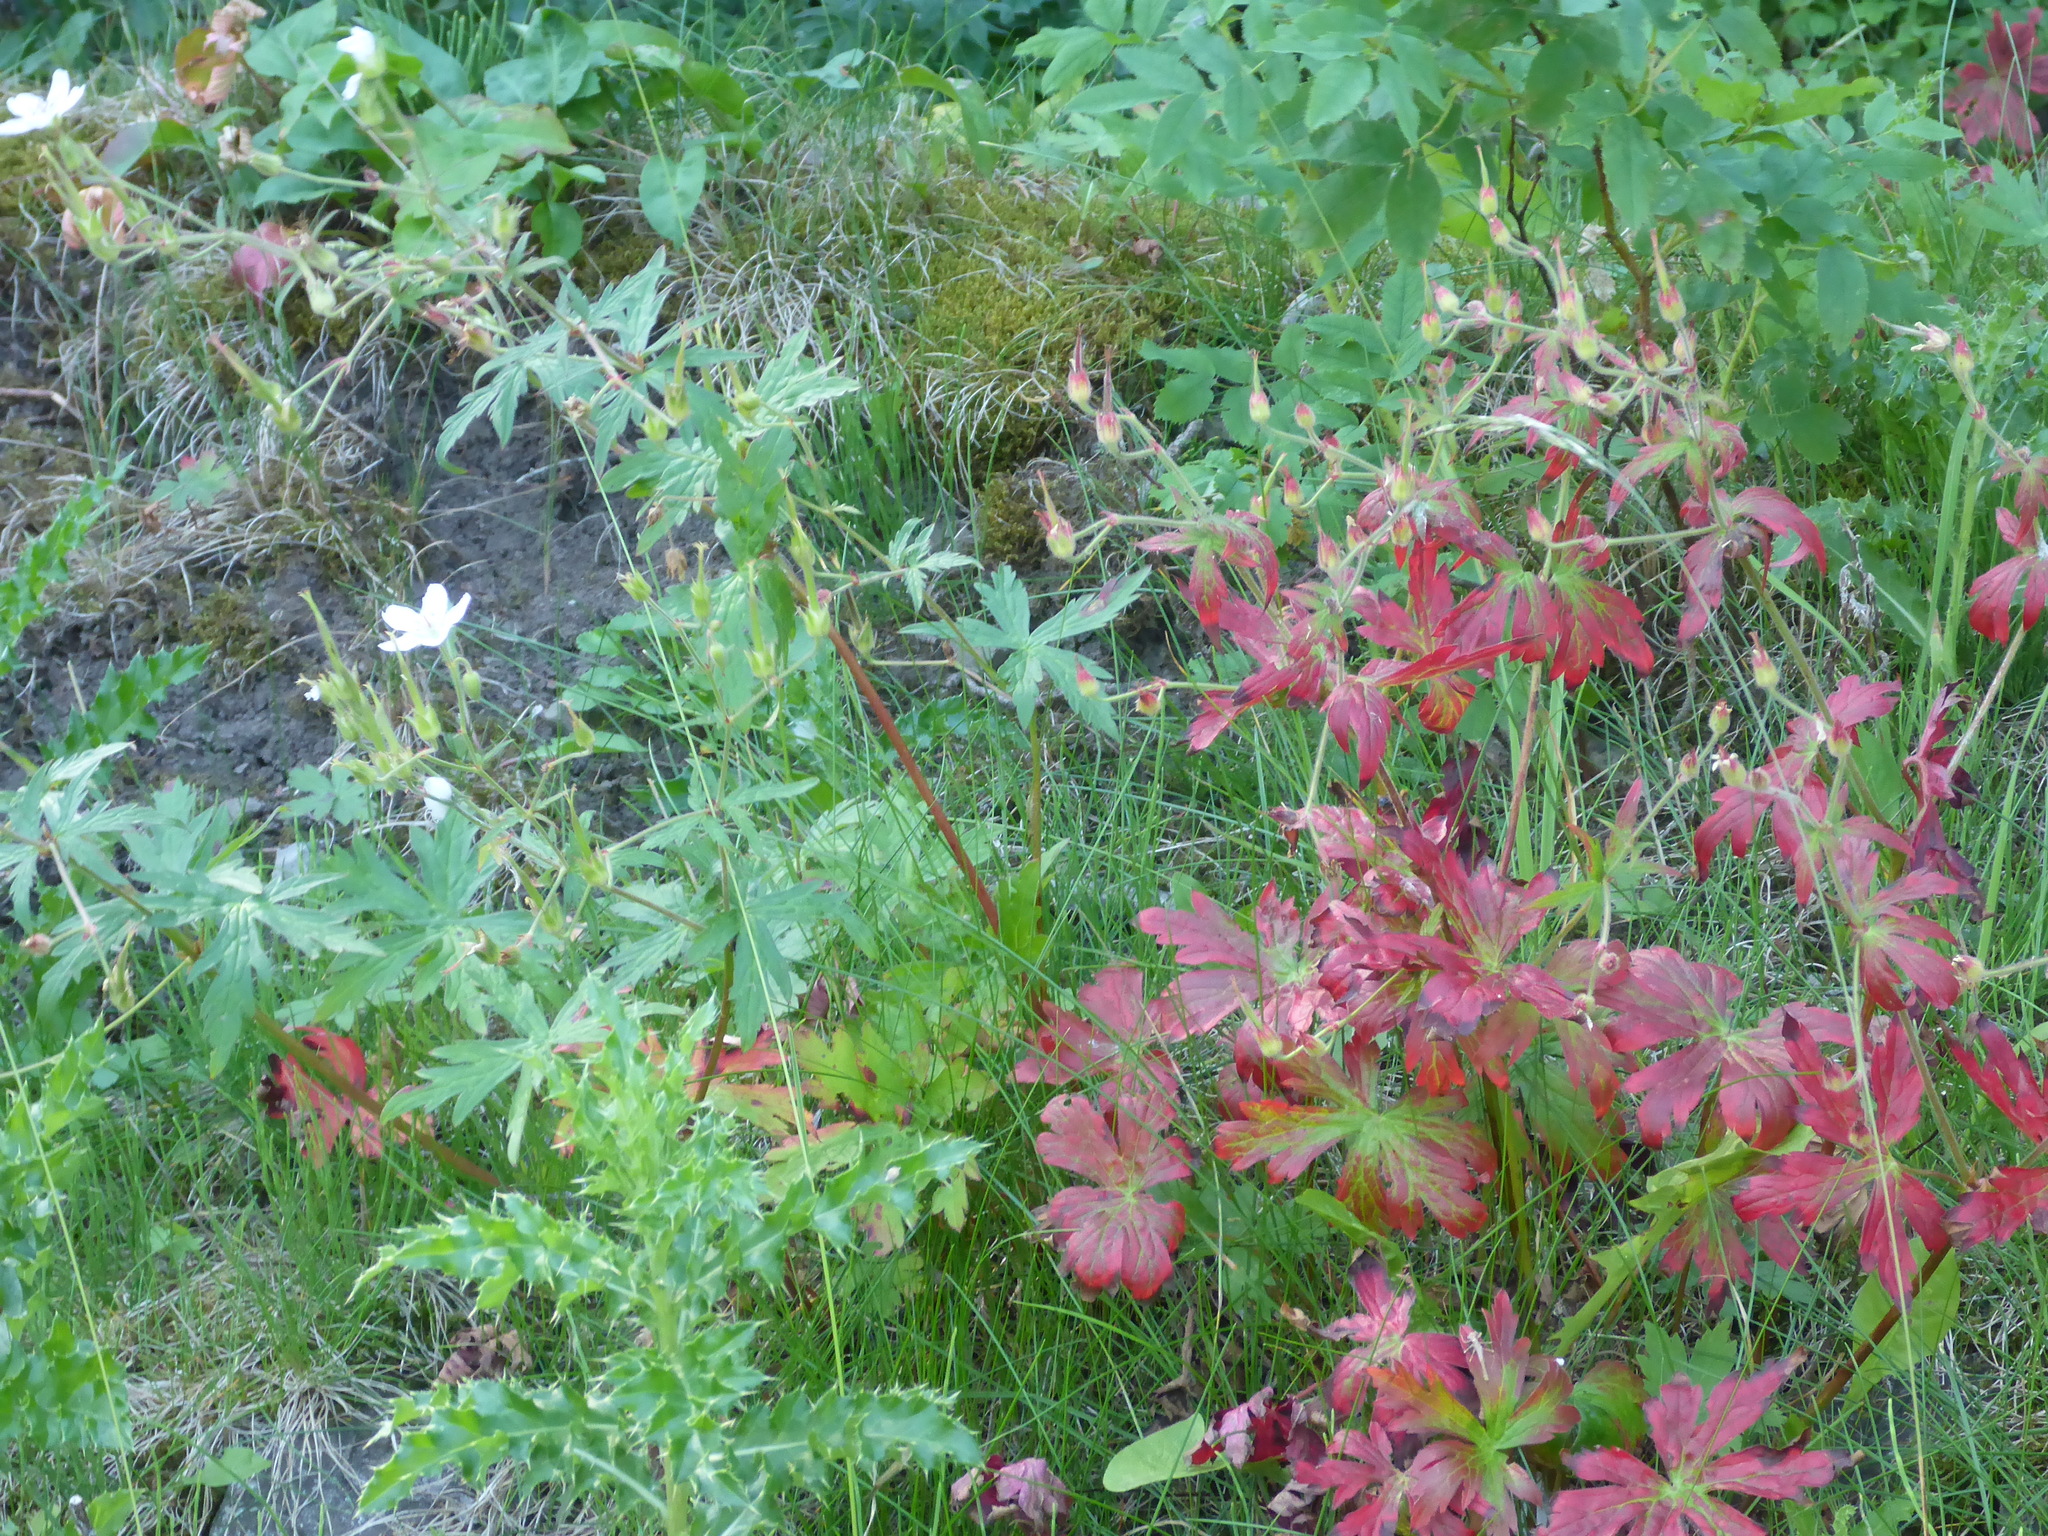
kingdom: Plantae
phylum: Tracheophyta
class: Magnoliopsida
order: Geraniales
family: Geraniaceae
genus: Geranium
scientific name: Geranium richardsonii
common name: Richardson's crane's-bill
